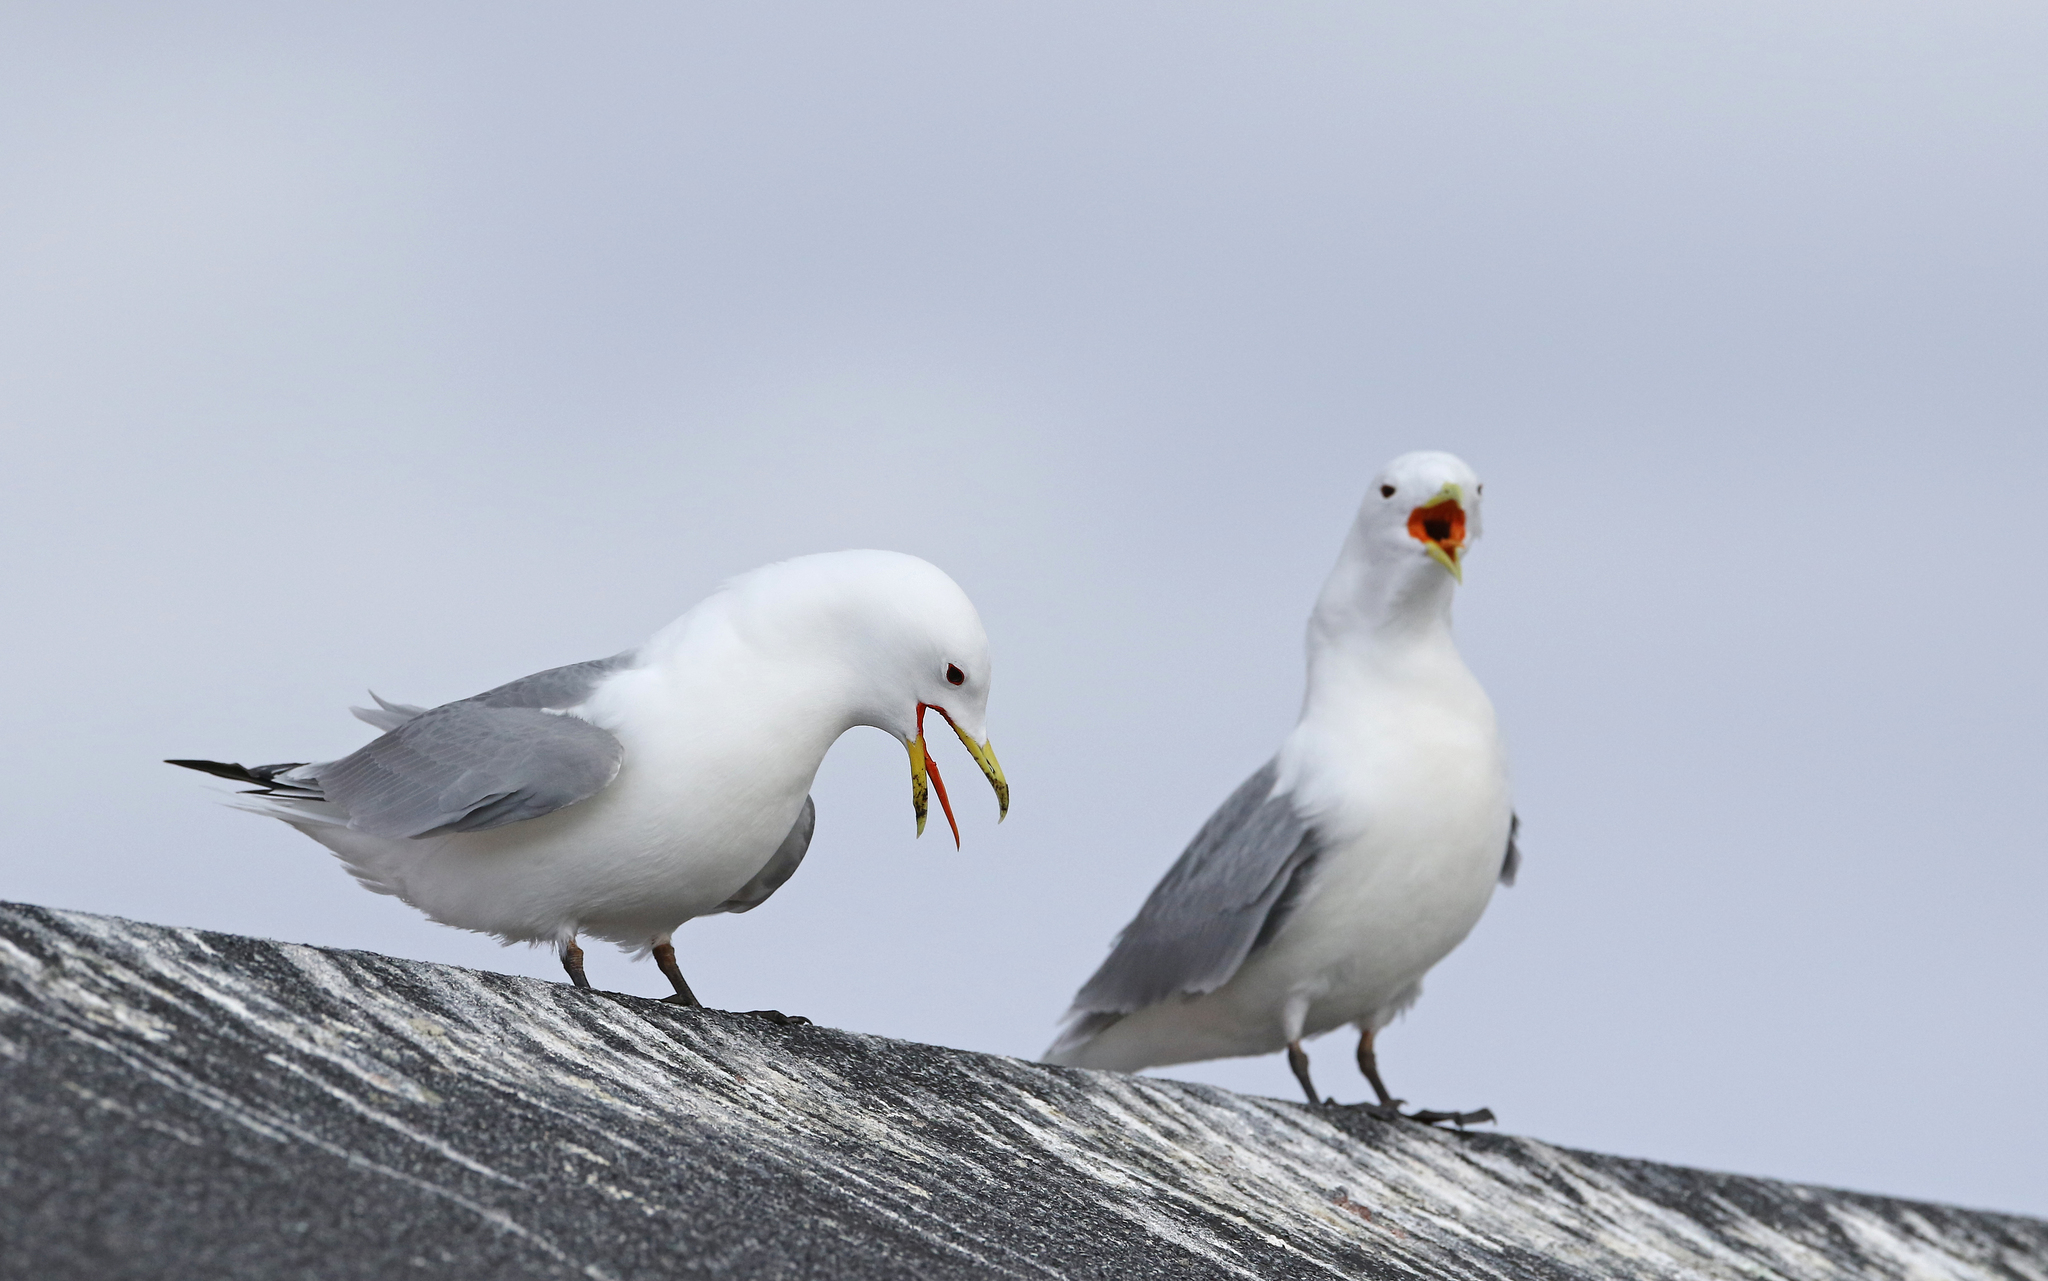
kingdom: Animalia
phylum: Chordata
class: Aves
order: Charadriiformes
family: Laridae
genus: Rissa
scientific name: Rissa tridactyla
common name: Black-legged kittiwake
